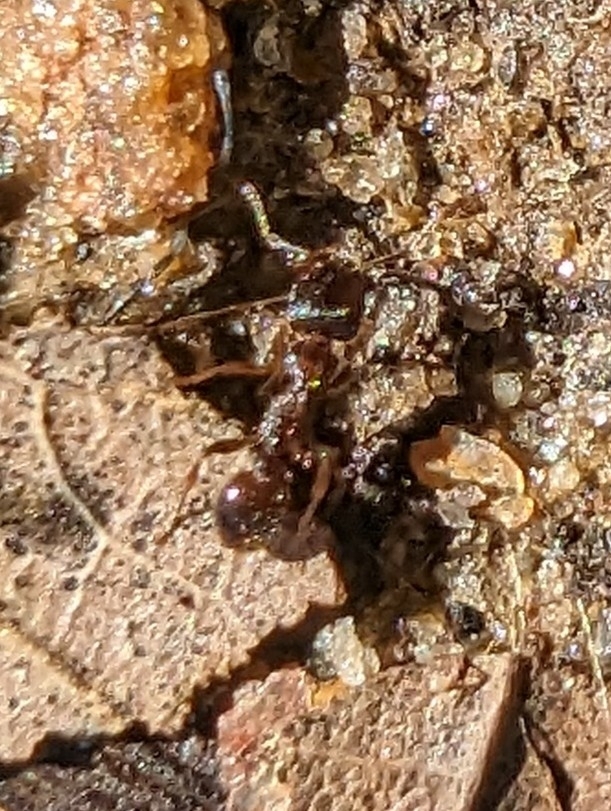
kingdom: Animalia
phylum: Arthropoda
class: Insecta
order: Hymenoptera
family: Formicidae
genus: Tetramorium
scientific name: Tetramorium immigrans
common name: Pavement ant
